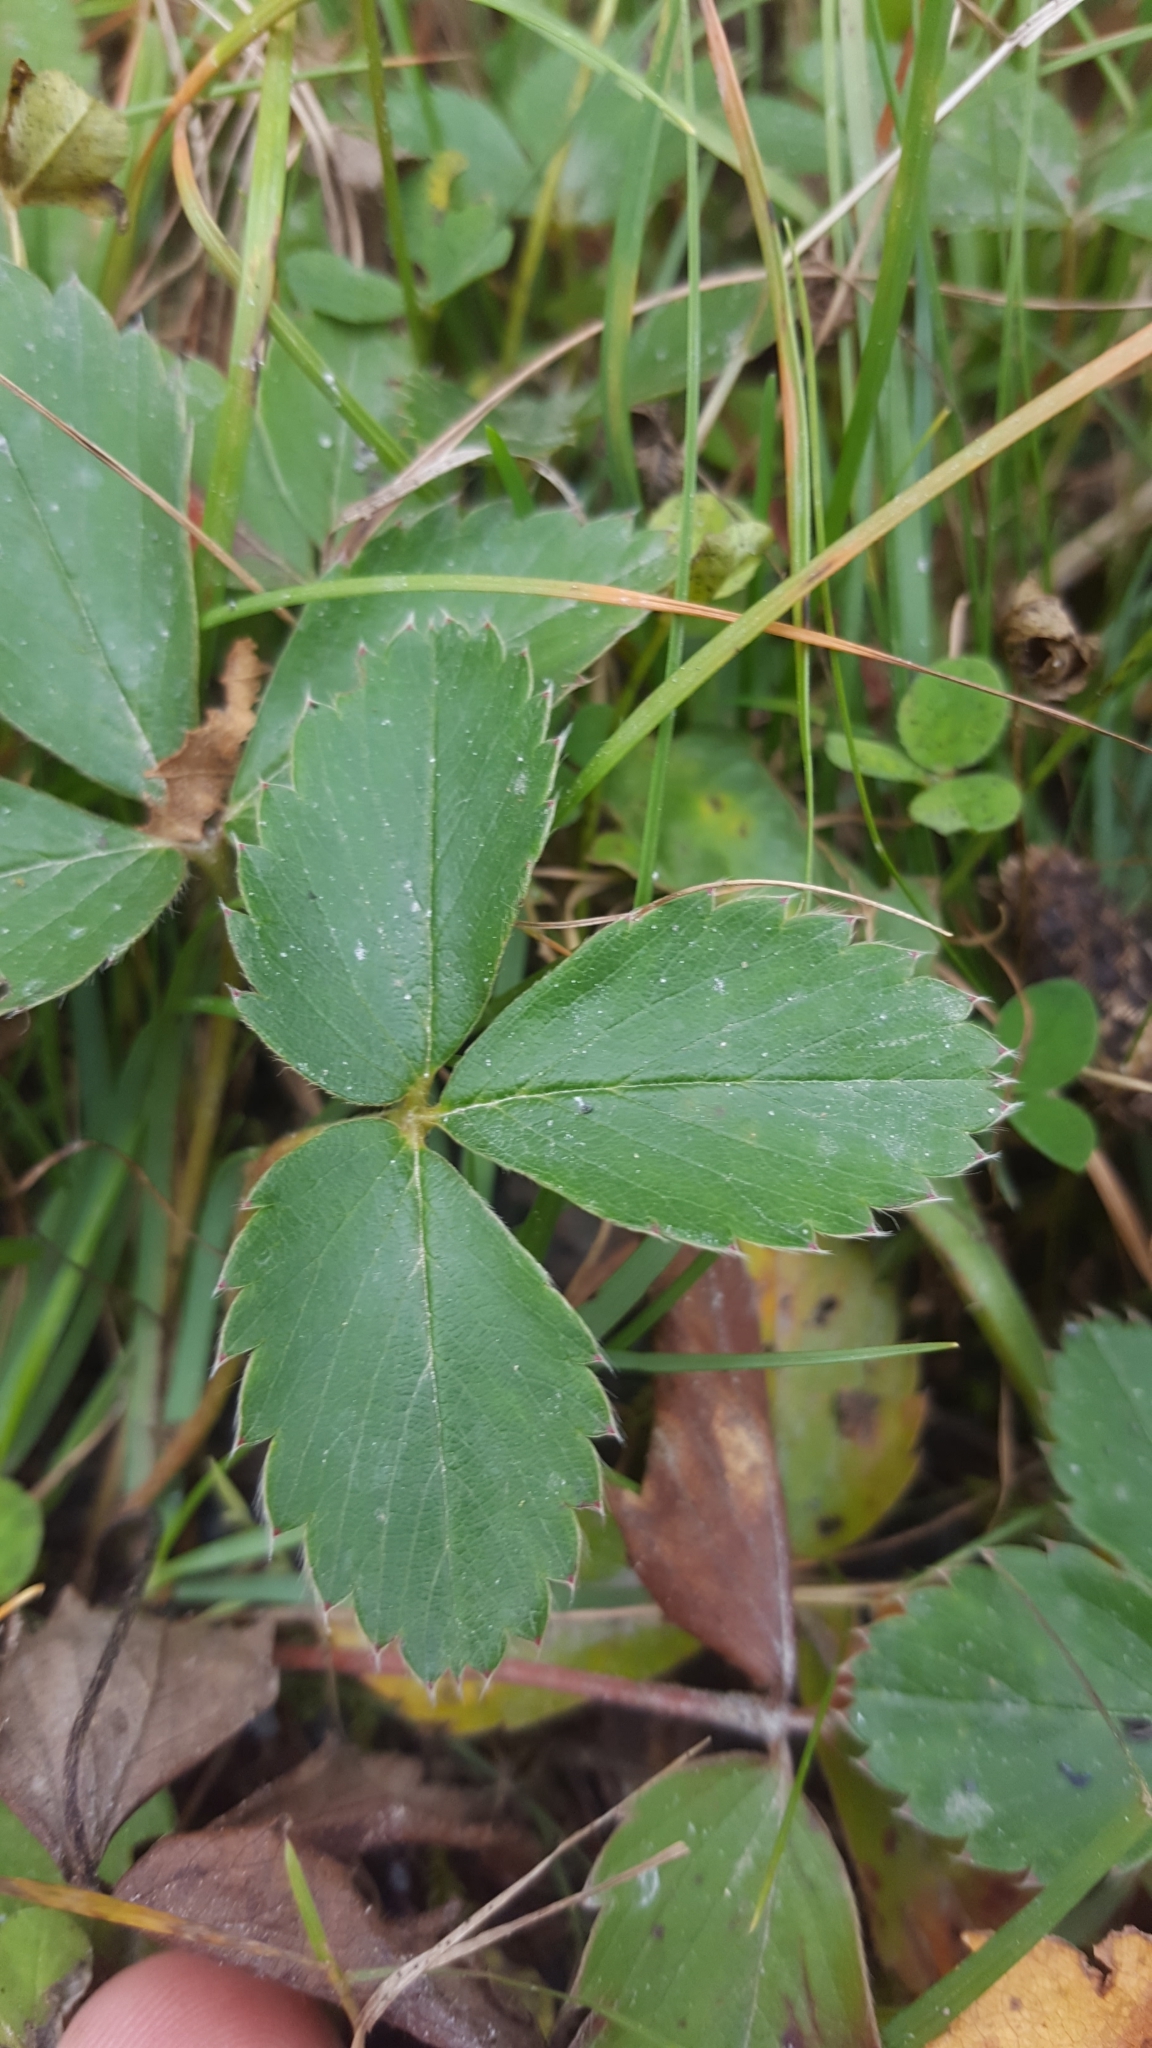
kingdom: Plantae
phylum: Tracheophyta
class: Magnoliopsida
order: Rosales
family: Rosaceae
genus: Fragaria
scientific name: Fragaria virginiana
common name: Thickleaved wild strawberry
